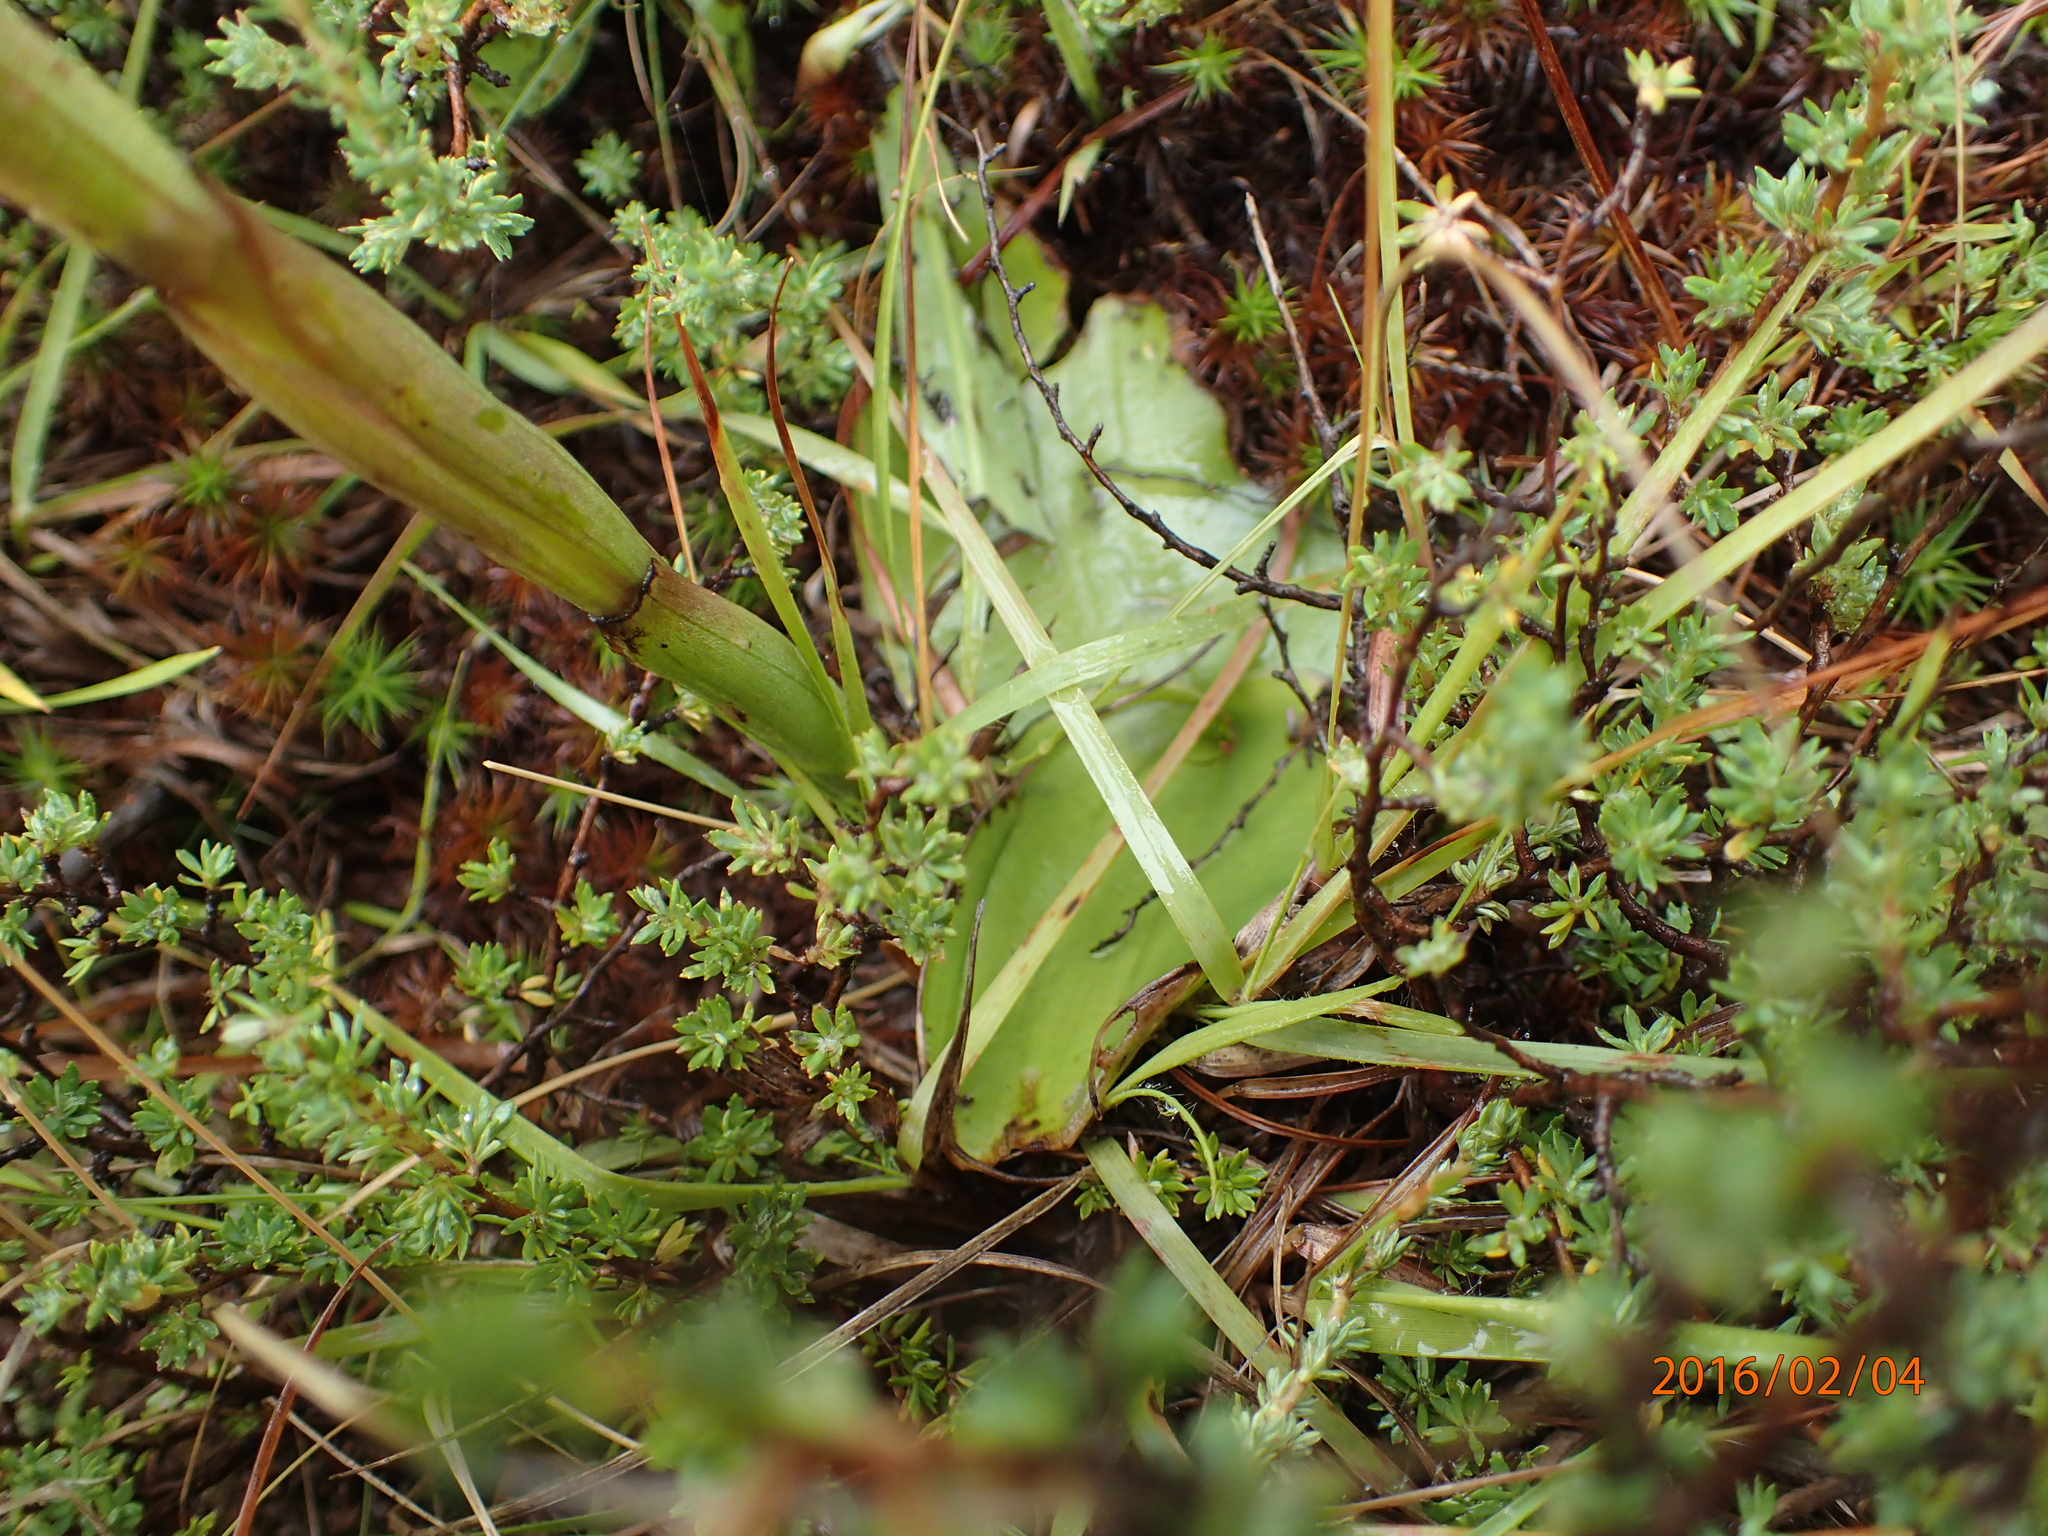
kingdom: Plantae
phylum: Tracheophyta
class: Liliopsida
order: Asparagales
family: Orchidaceae
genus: Satyrium
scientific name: Satyrium longicauda
